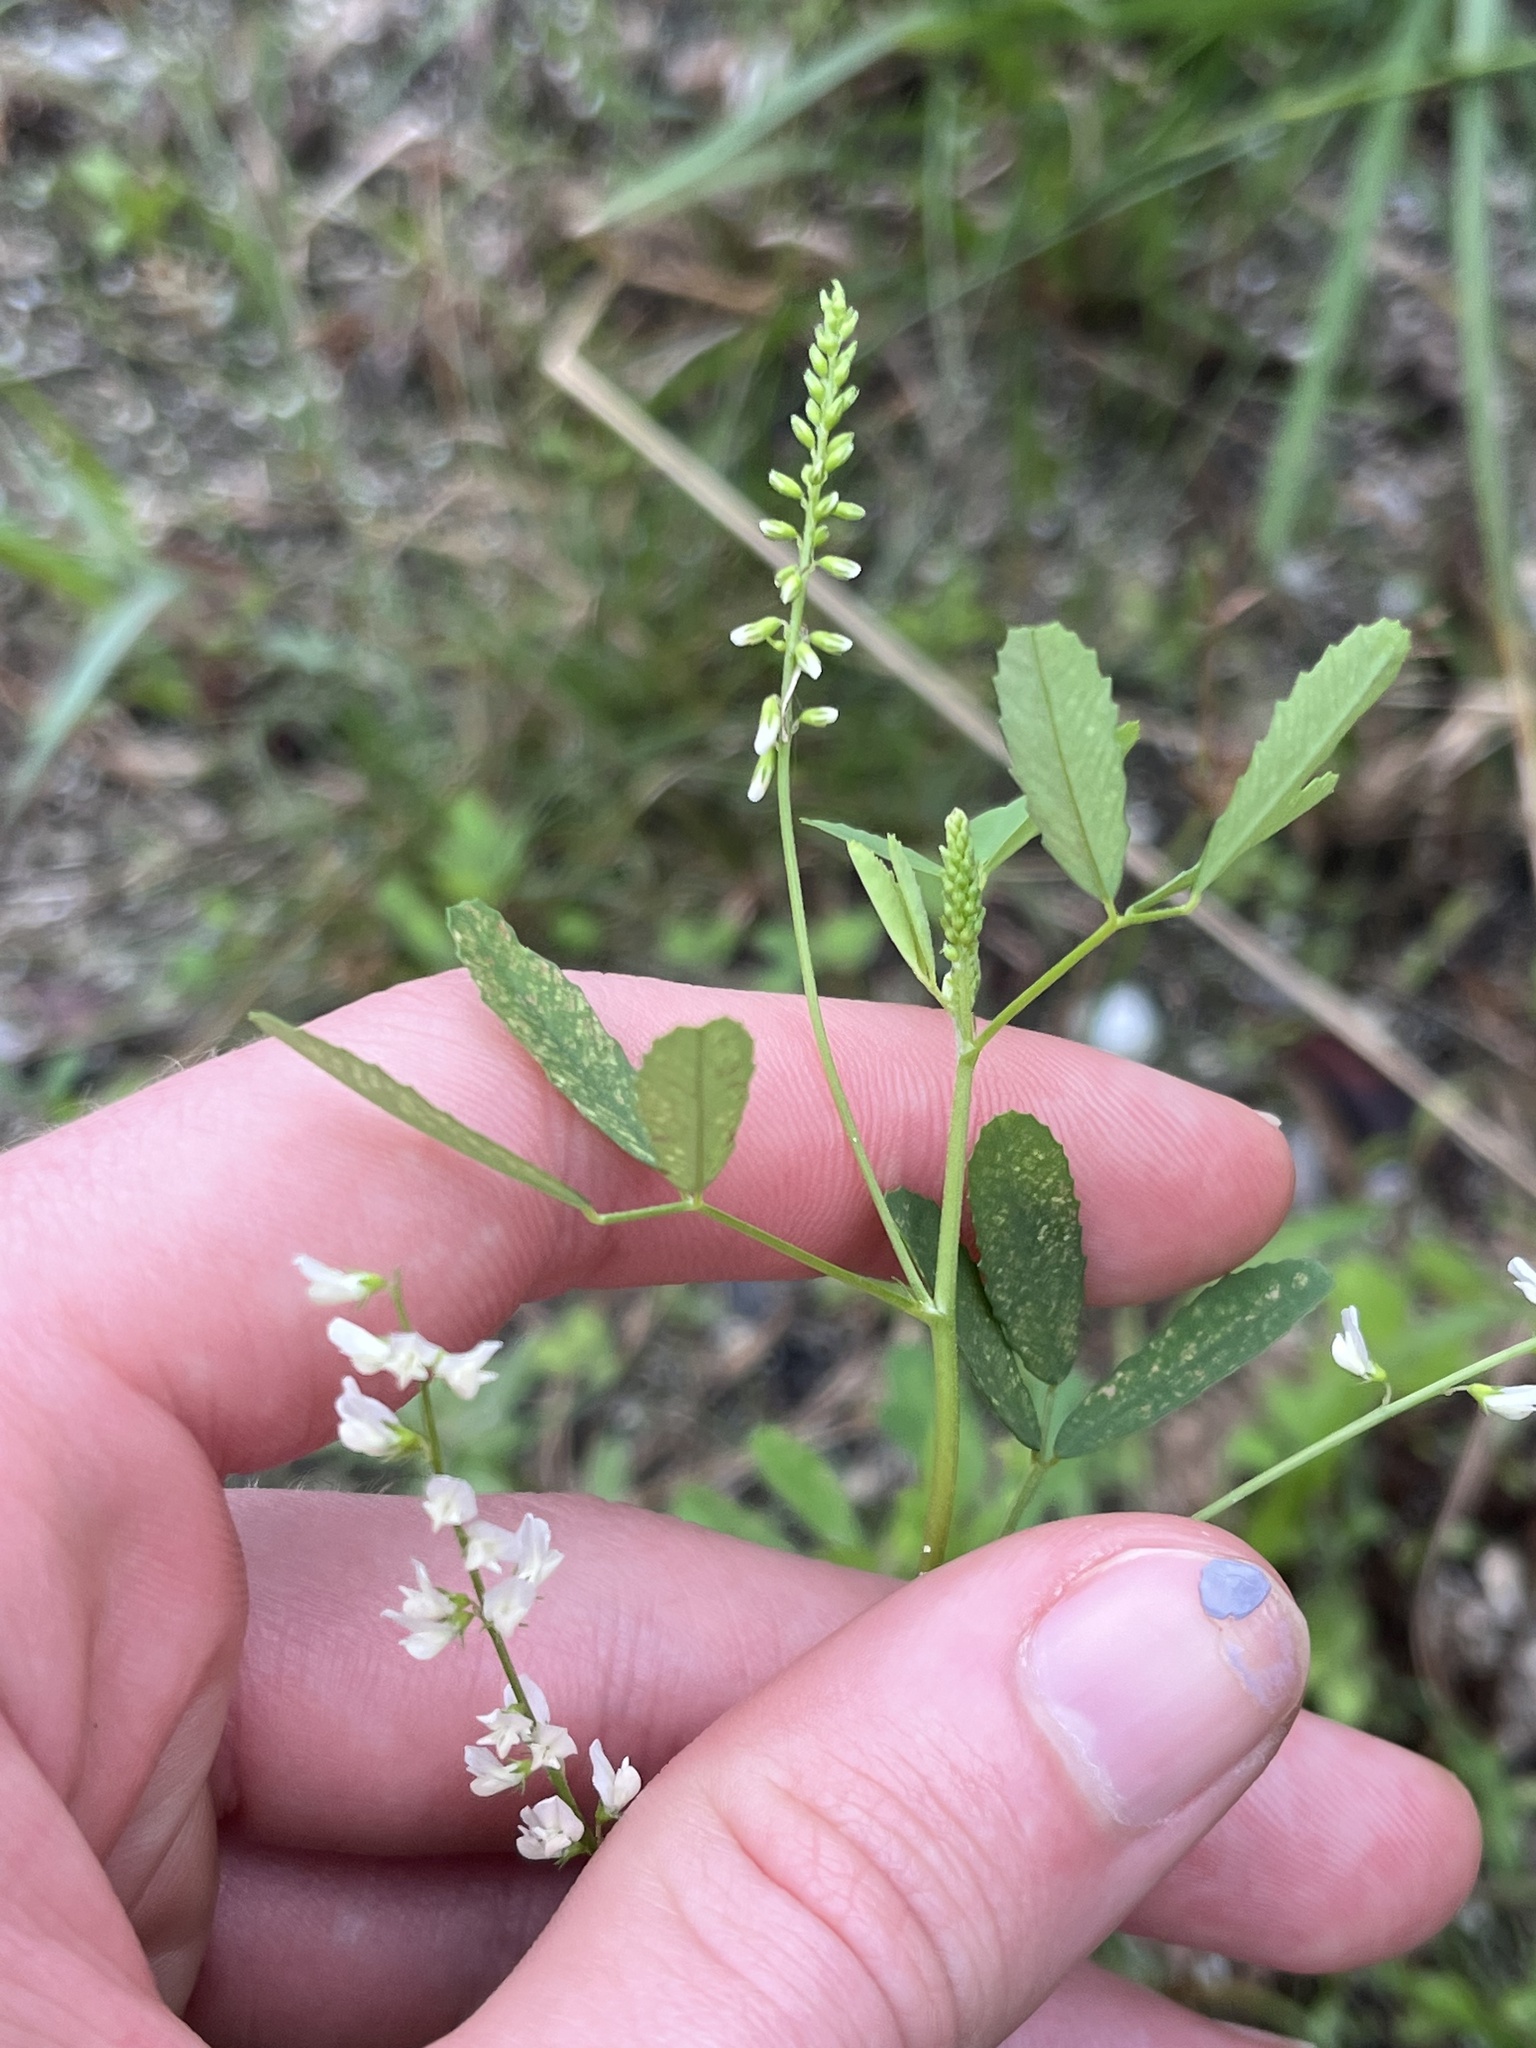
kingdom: Plantae
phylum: Tracheophyta
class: Magnoliopsida
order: Fabales
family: Fabaceae
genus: Melilotus
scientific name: Melilotus albus
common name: White melilot
